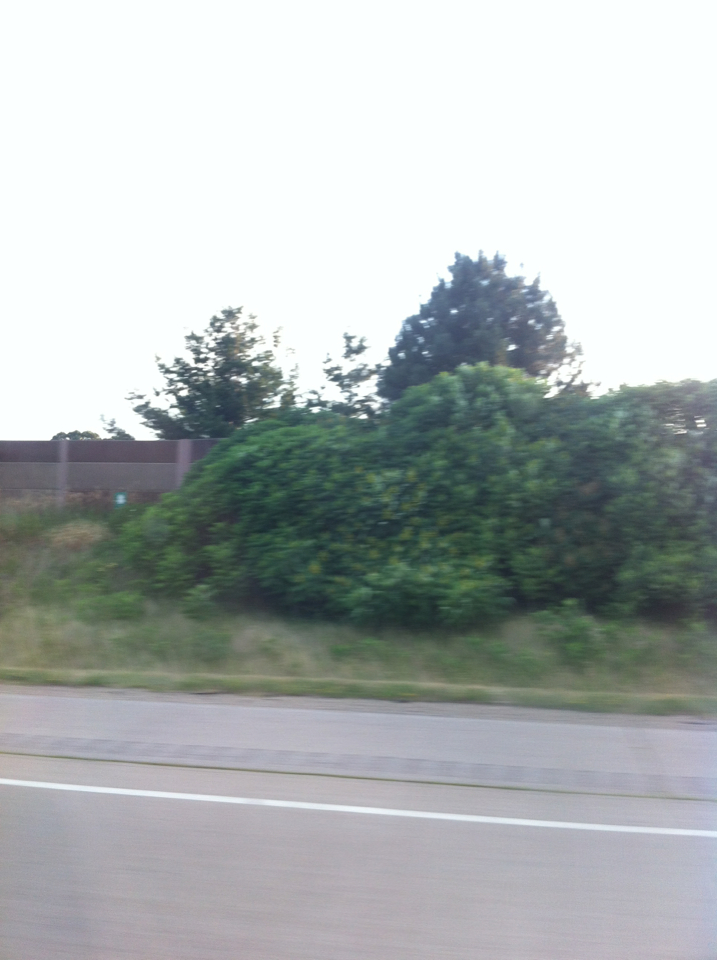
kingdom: Plantae
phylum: Tracheophyta
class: Magnoliopsida
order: Sapindales
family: Anacardiaceae
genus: Rhus
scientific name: Rhus typhina
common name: Staghorn sumac
